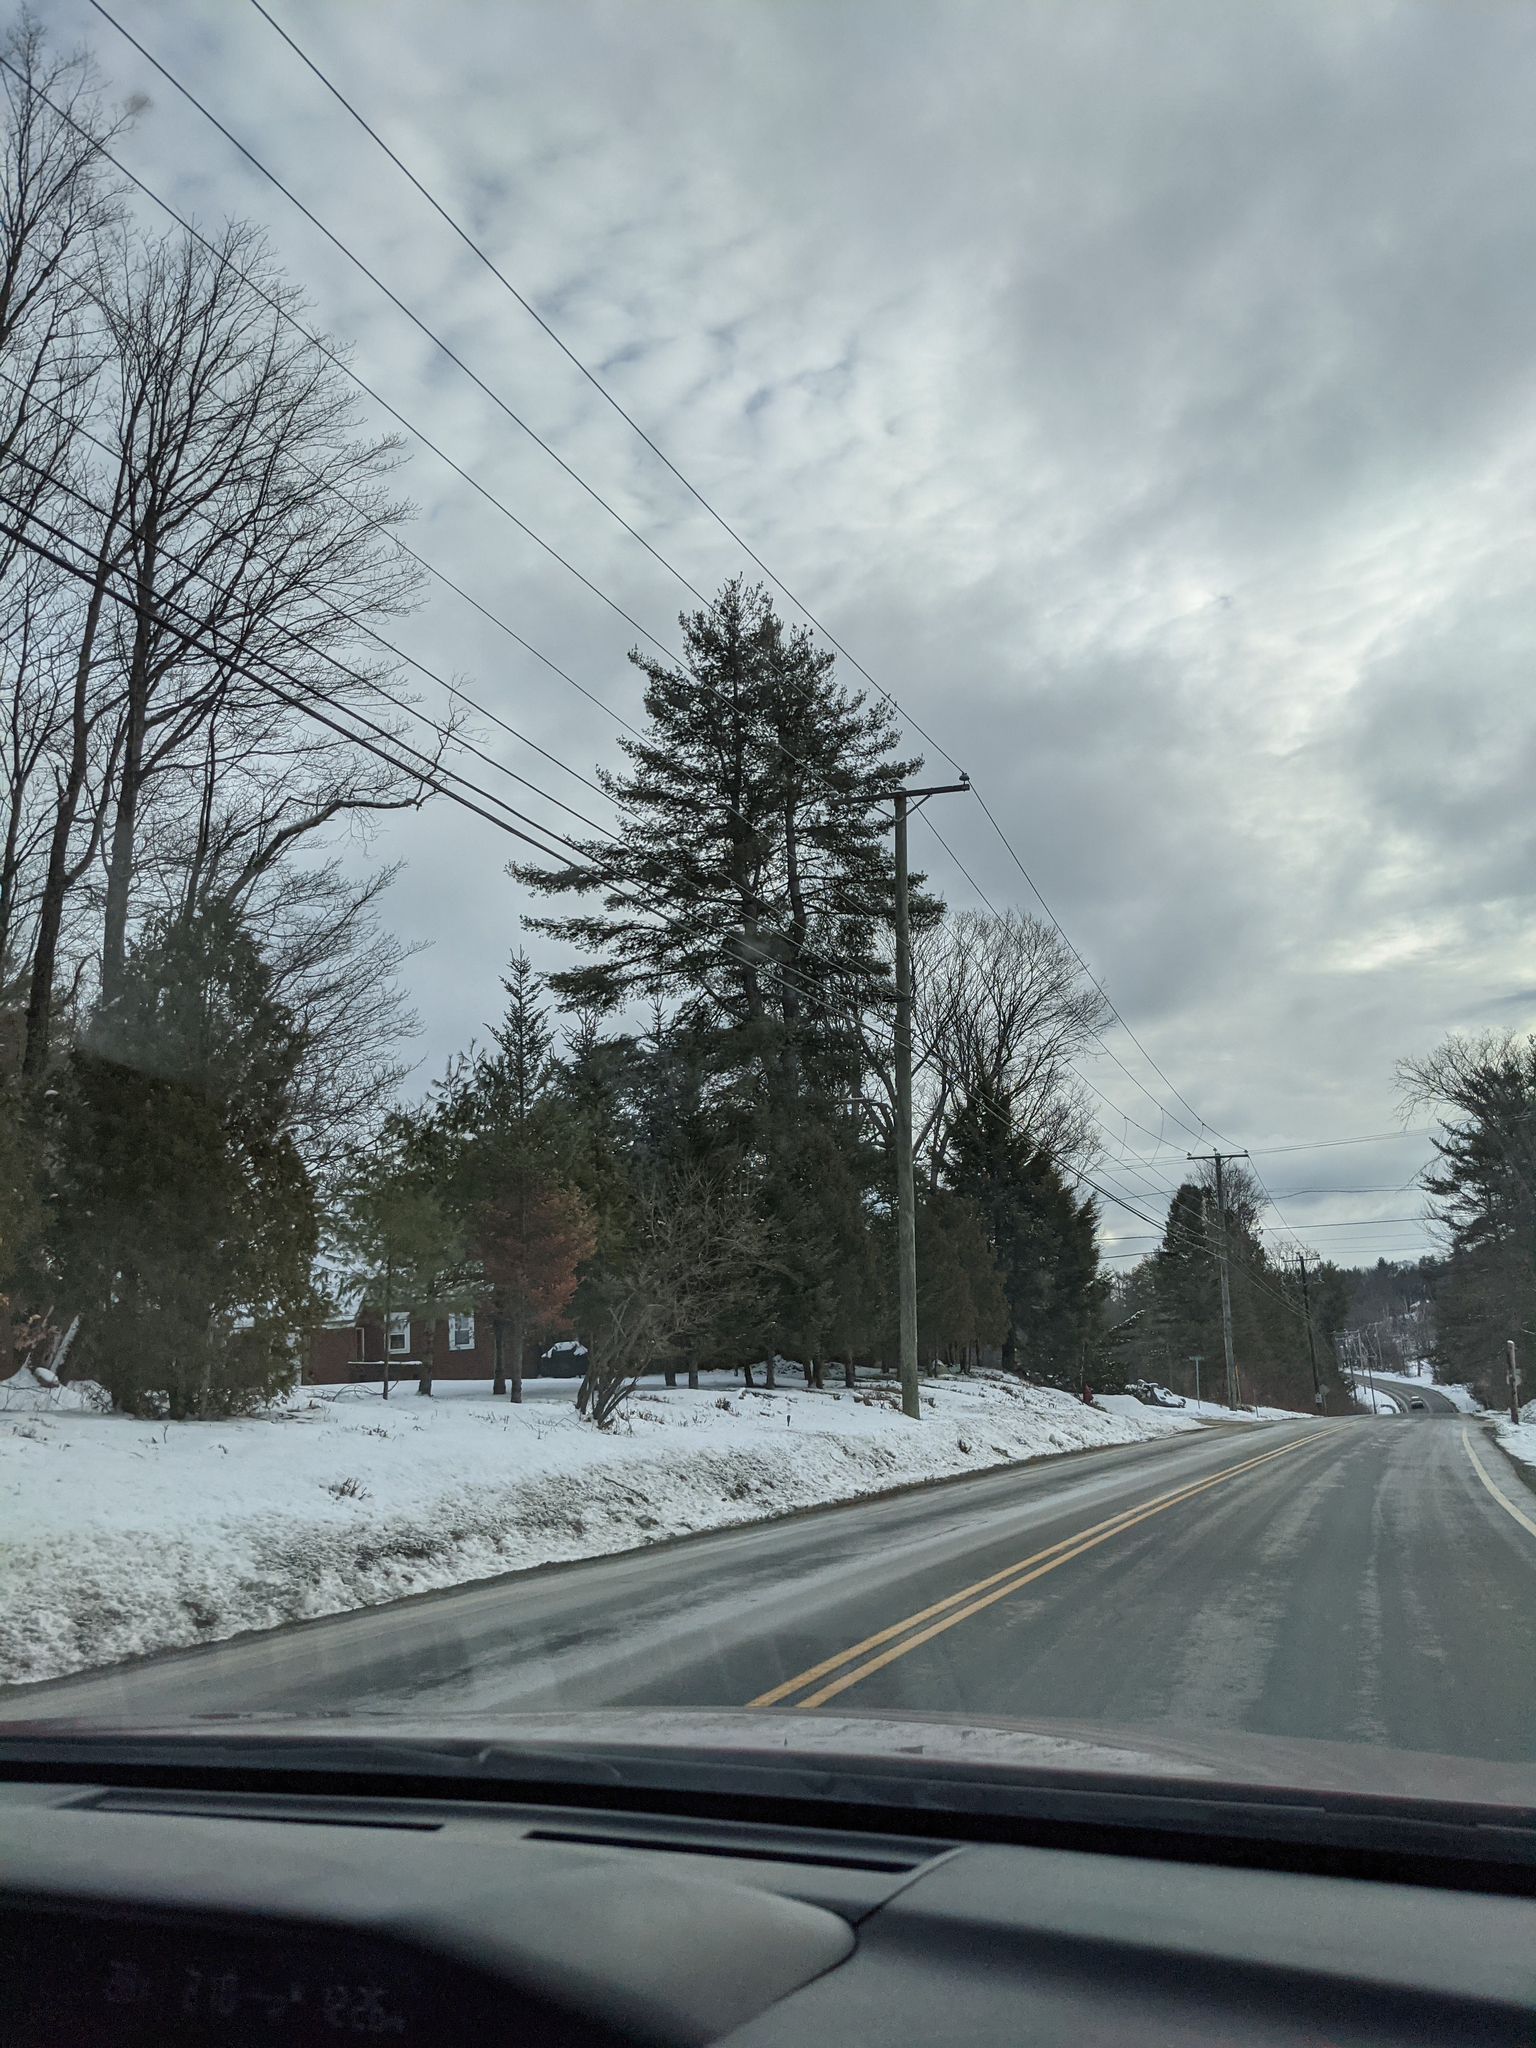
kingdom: Plantae
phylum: Tracheophyta
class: Pinopsida
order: Pinales
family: Pinaceae
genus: Pinus
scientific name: Pinus strobus
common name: Weymouth pine
